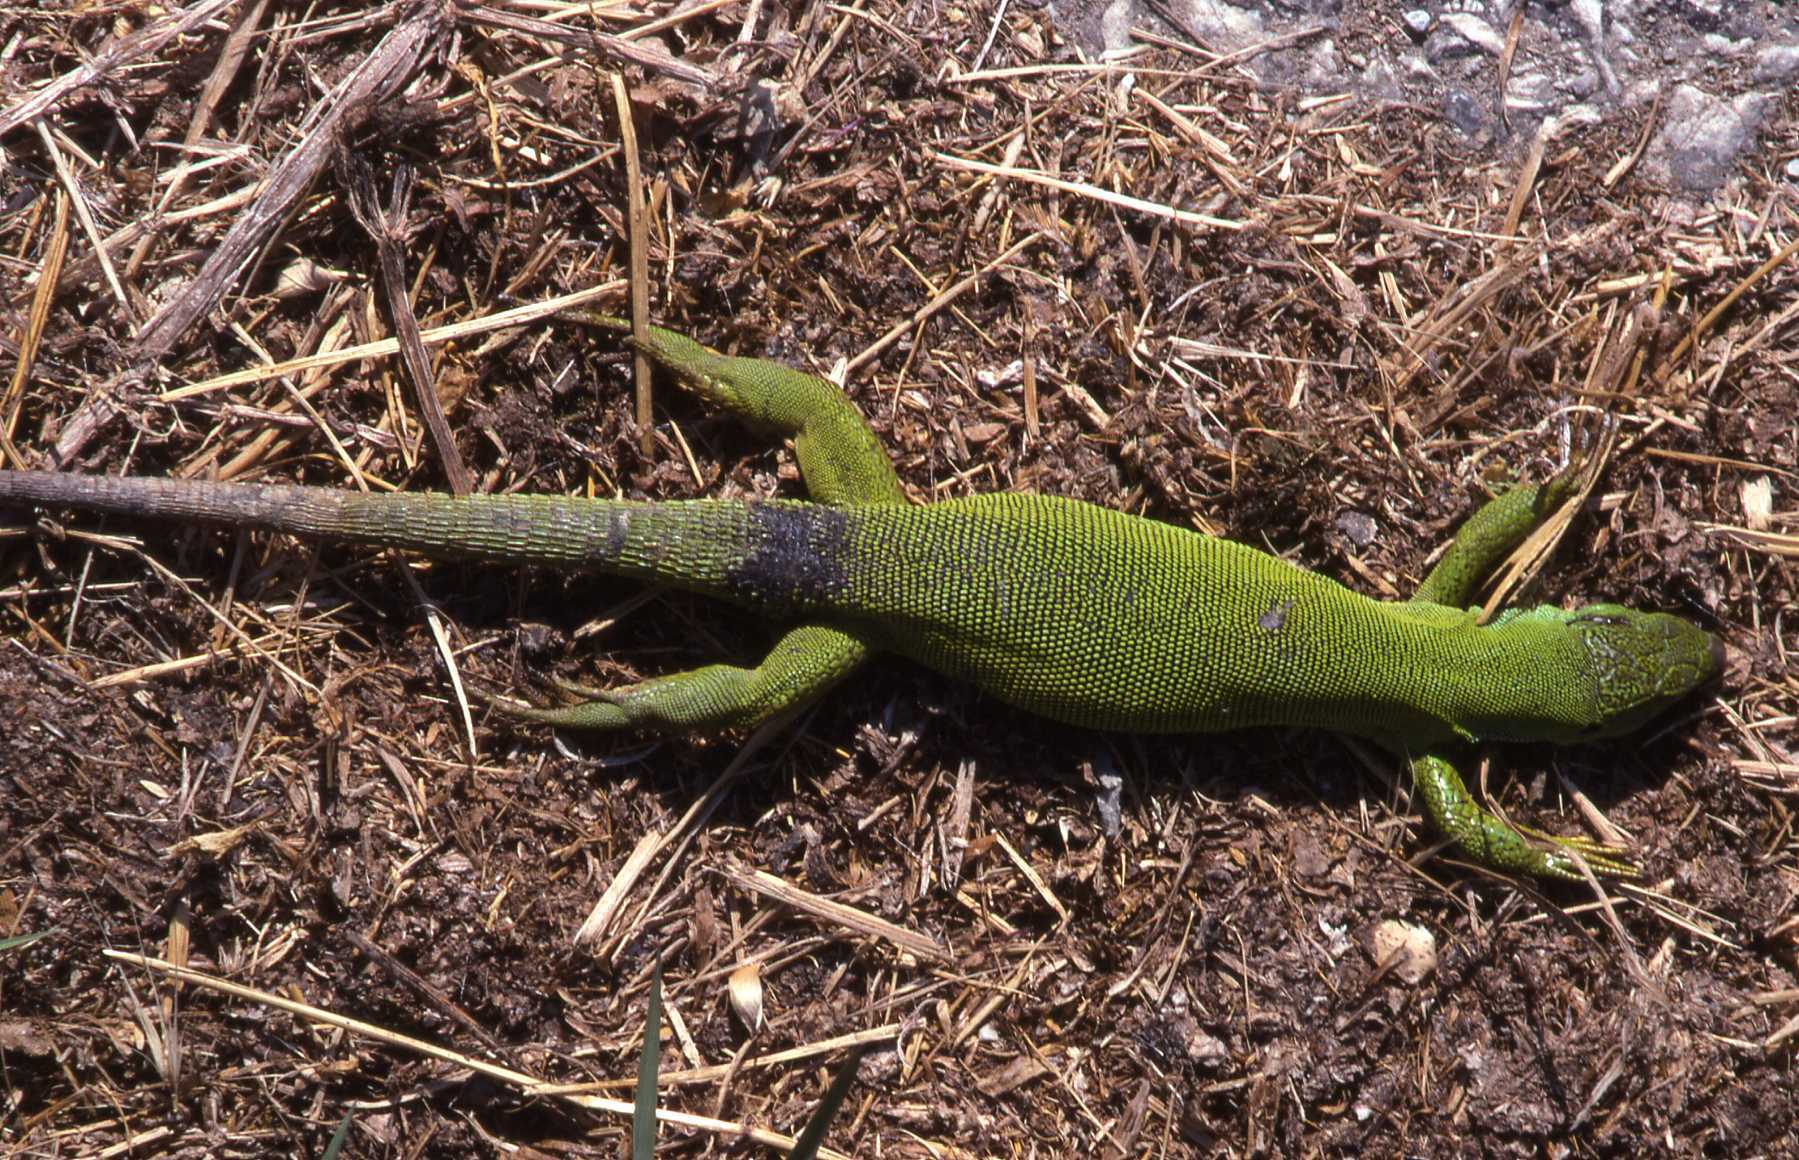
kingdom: Animalia
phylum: Chordata
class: Squamata
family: Lacertidae
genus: Lacerta
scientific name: Lacerta trilineata
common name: Balkan green lizard
